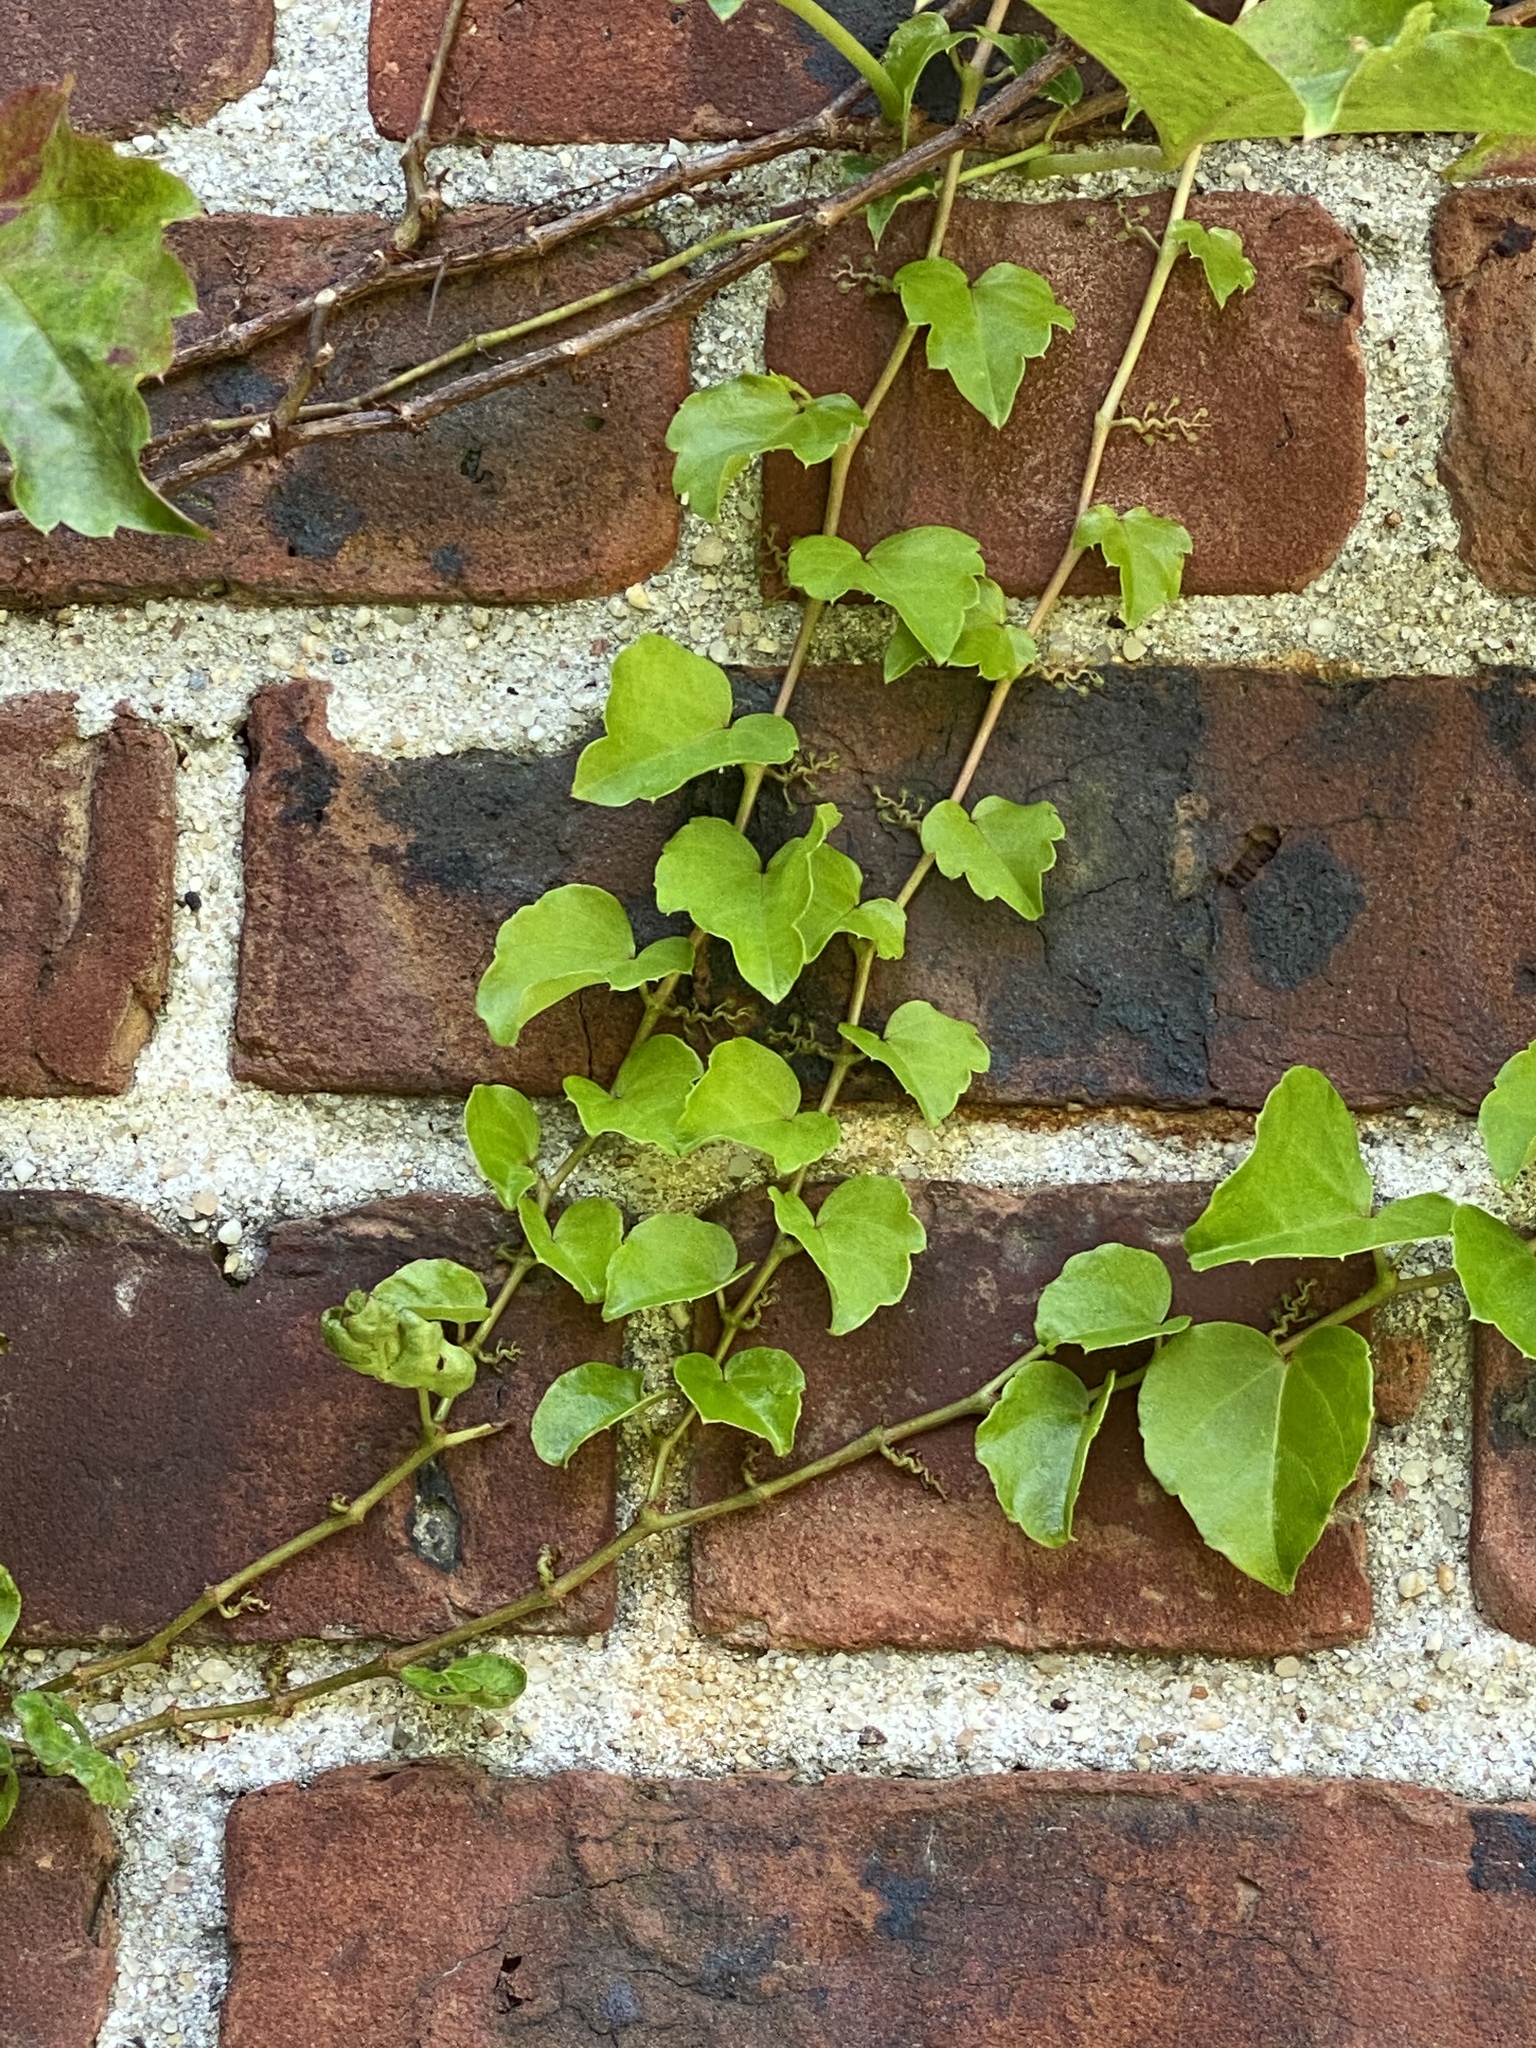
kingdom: Plantae
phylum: Tracheophyta
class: Magnoliopsida
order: Vitales
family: Vitaceae
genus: Parthenocissus
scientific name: Parthenocissus tricuspidata
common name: Boston ivy
